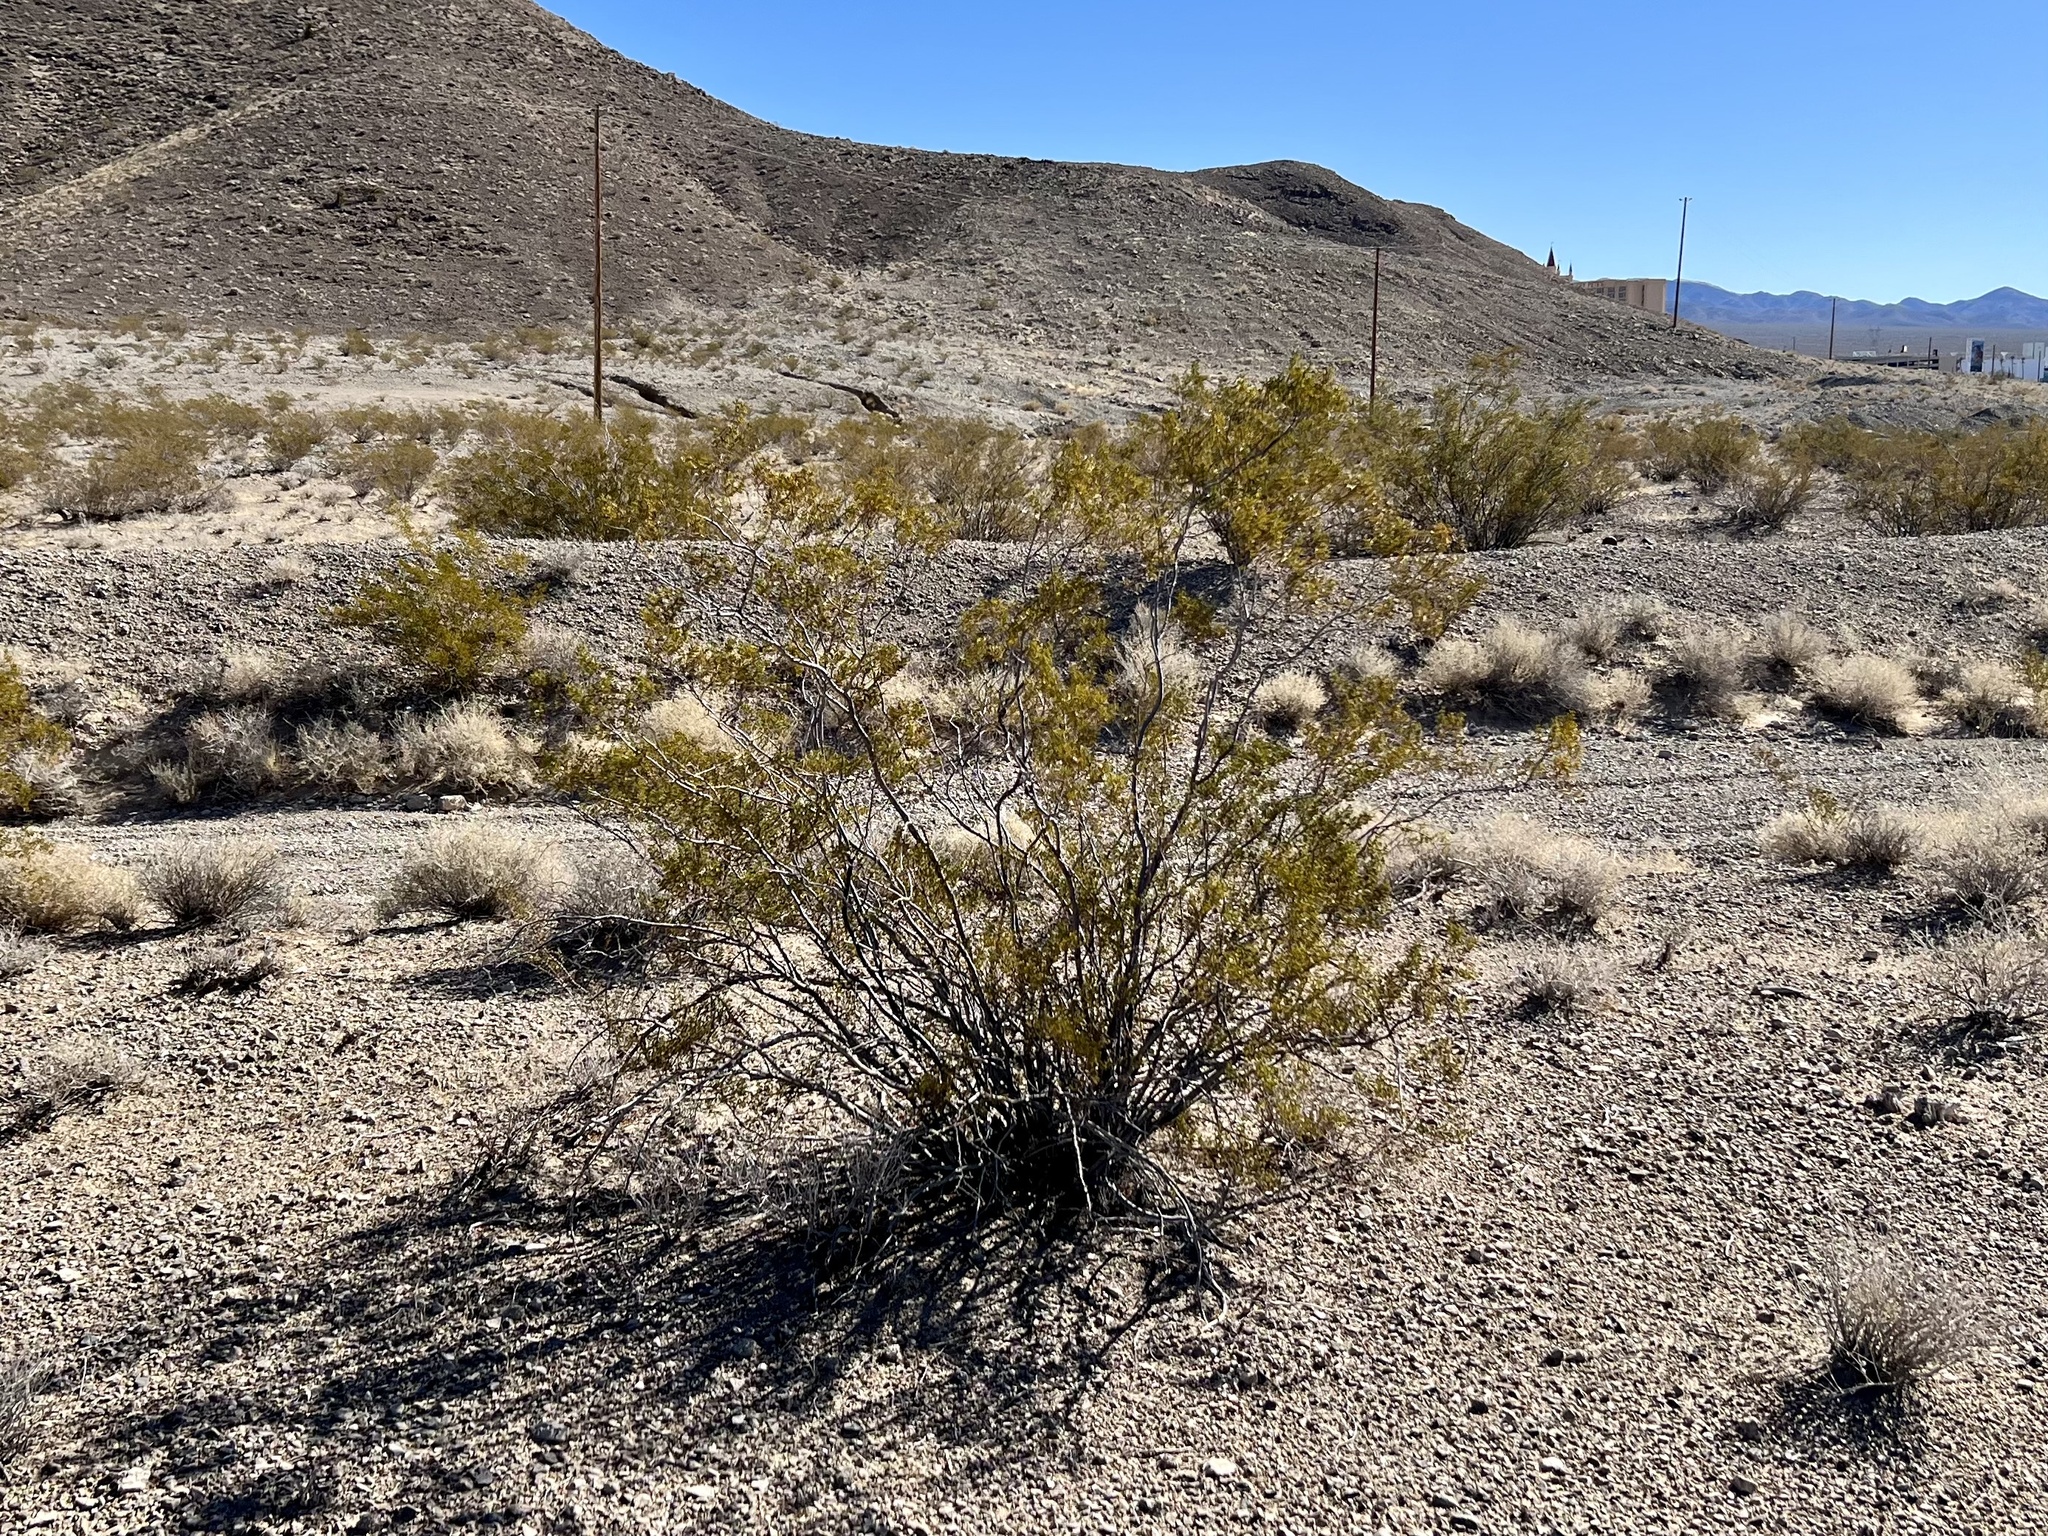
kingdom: Plantae
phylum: Tracheophyta
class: Magnoliopsida
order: Zygophyllales
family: Zygophyllaceae
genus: Larrea
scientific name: Larrea tridentata
